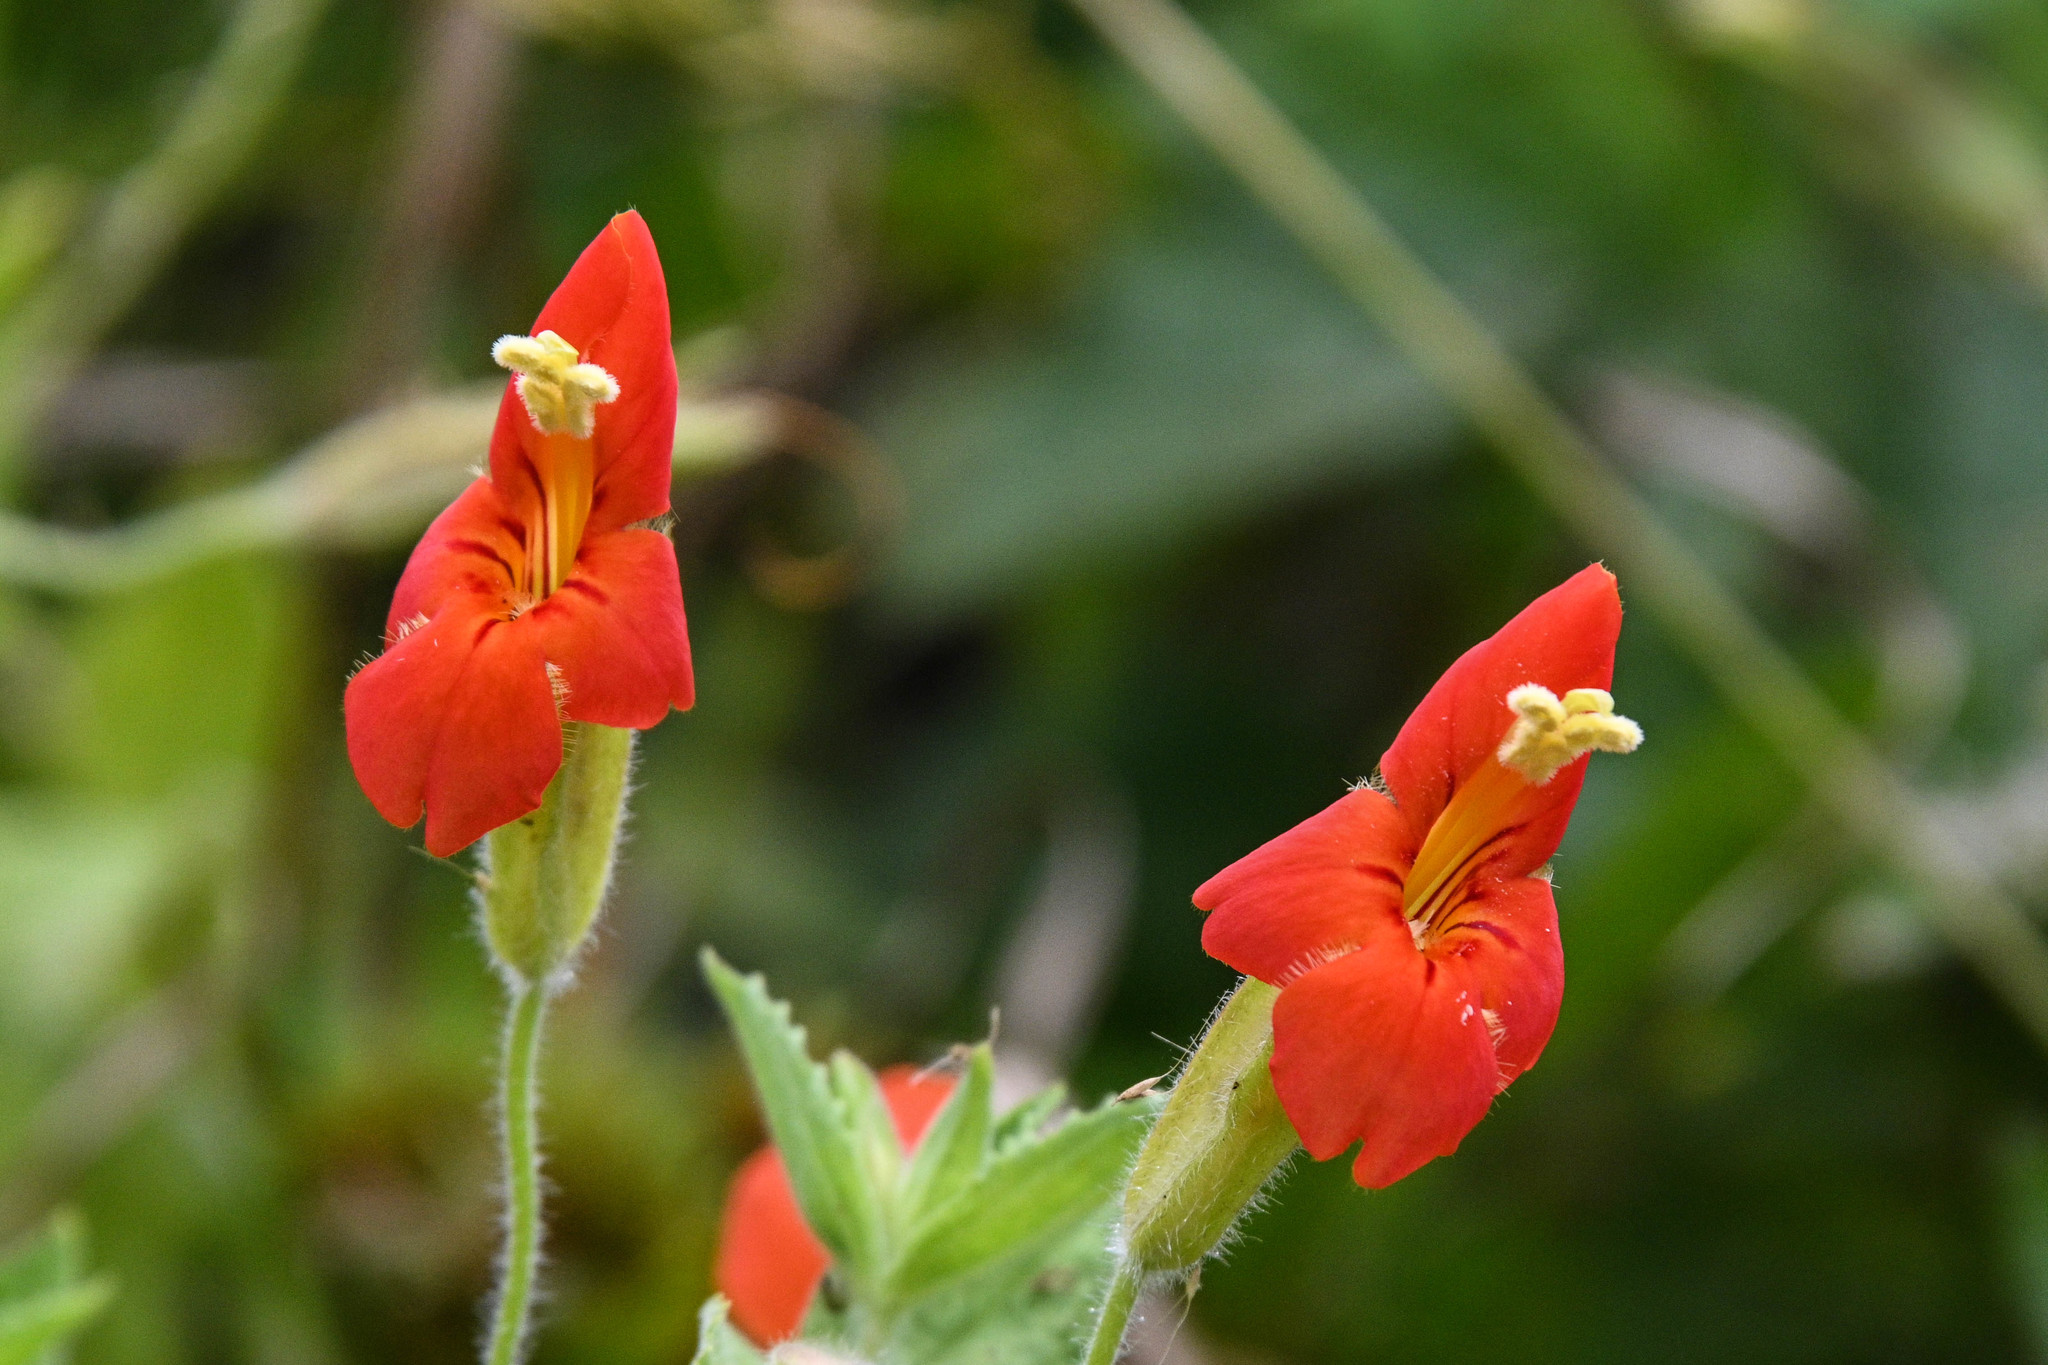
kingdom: Plantae
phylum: Tracheophyta
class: Magnoliopsida
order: Lamiales
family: Phrymaceae
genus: Erythranthe
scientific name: Erythranthe cardinalis
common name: Scarlet monkey-flower
